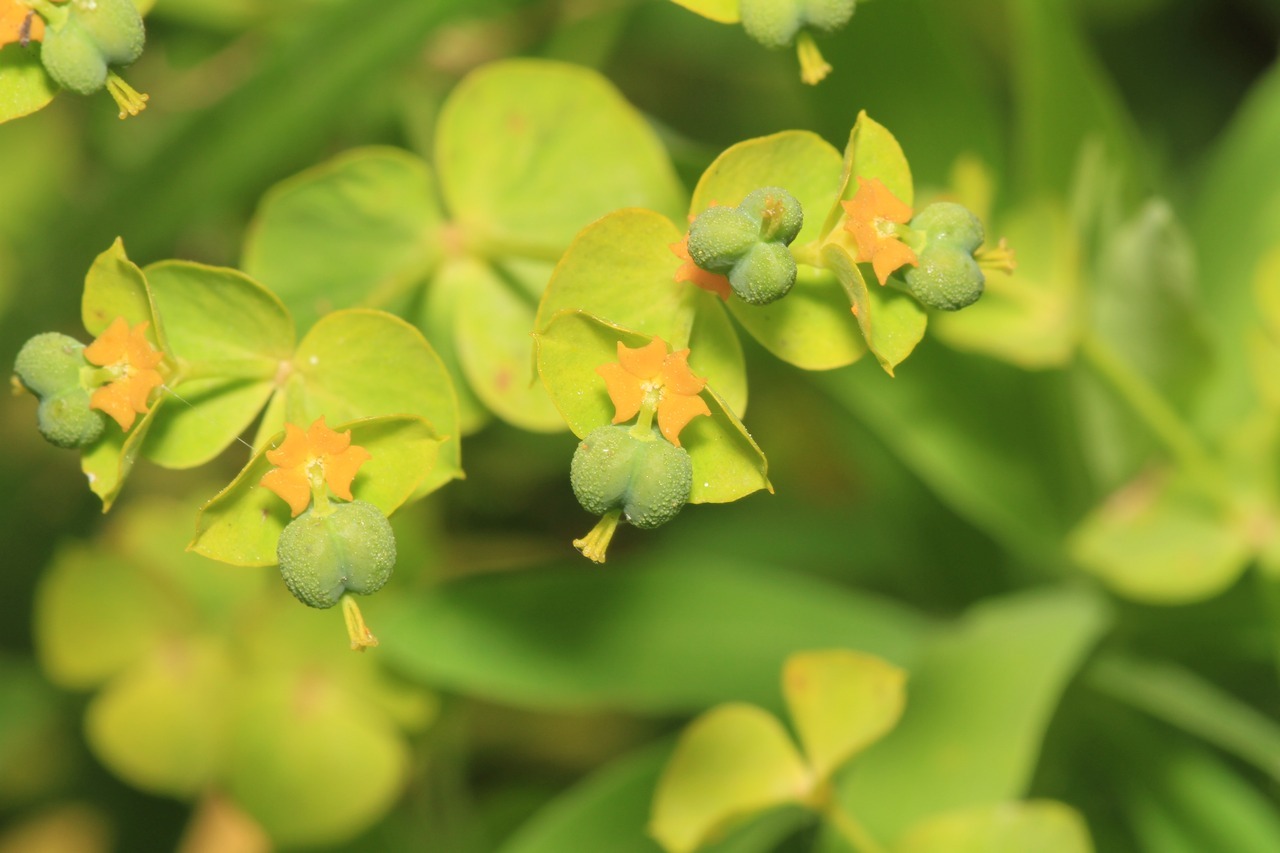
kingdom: Plantae
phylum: Tracheophyta
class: Magnoliopsida
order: Malpighiales
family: Euphorbiaceae
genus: Euphorbia
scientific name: Euphorbia esula
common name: Leafy spurge
